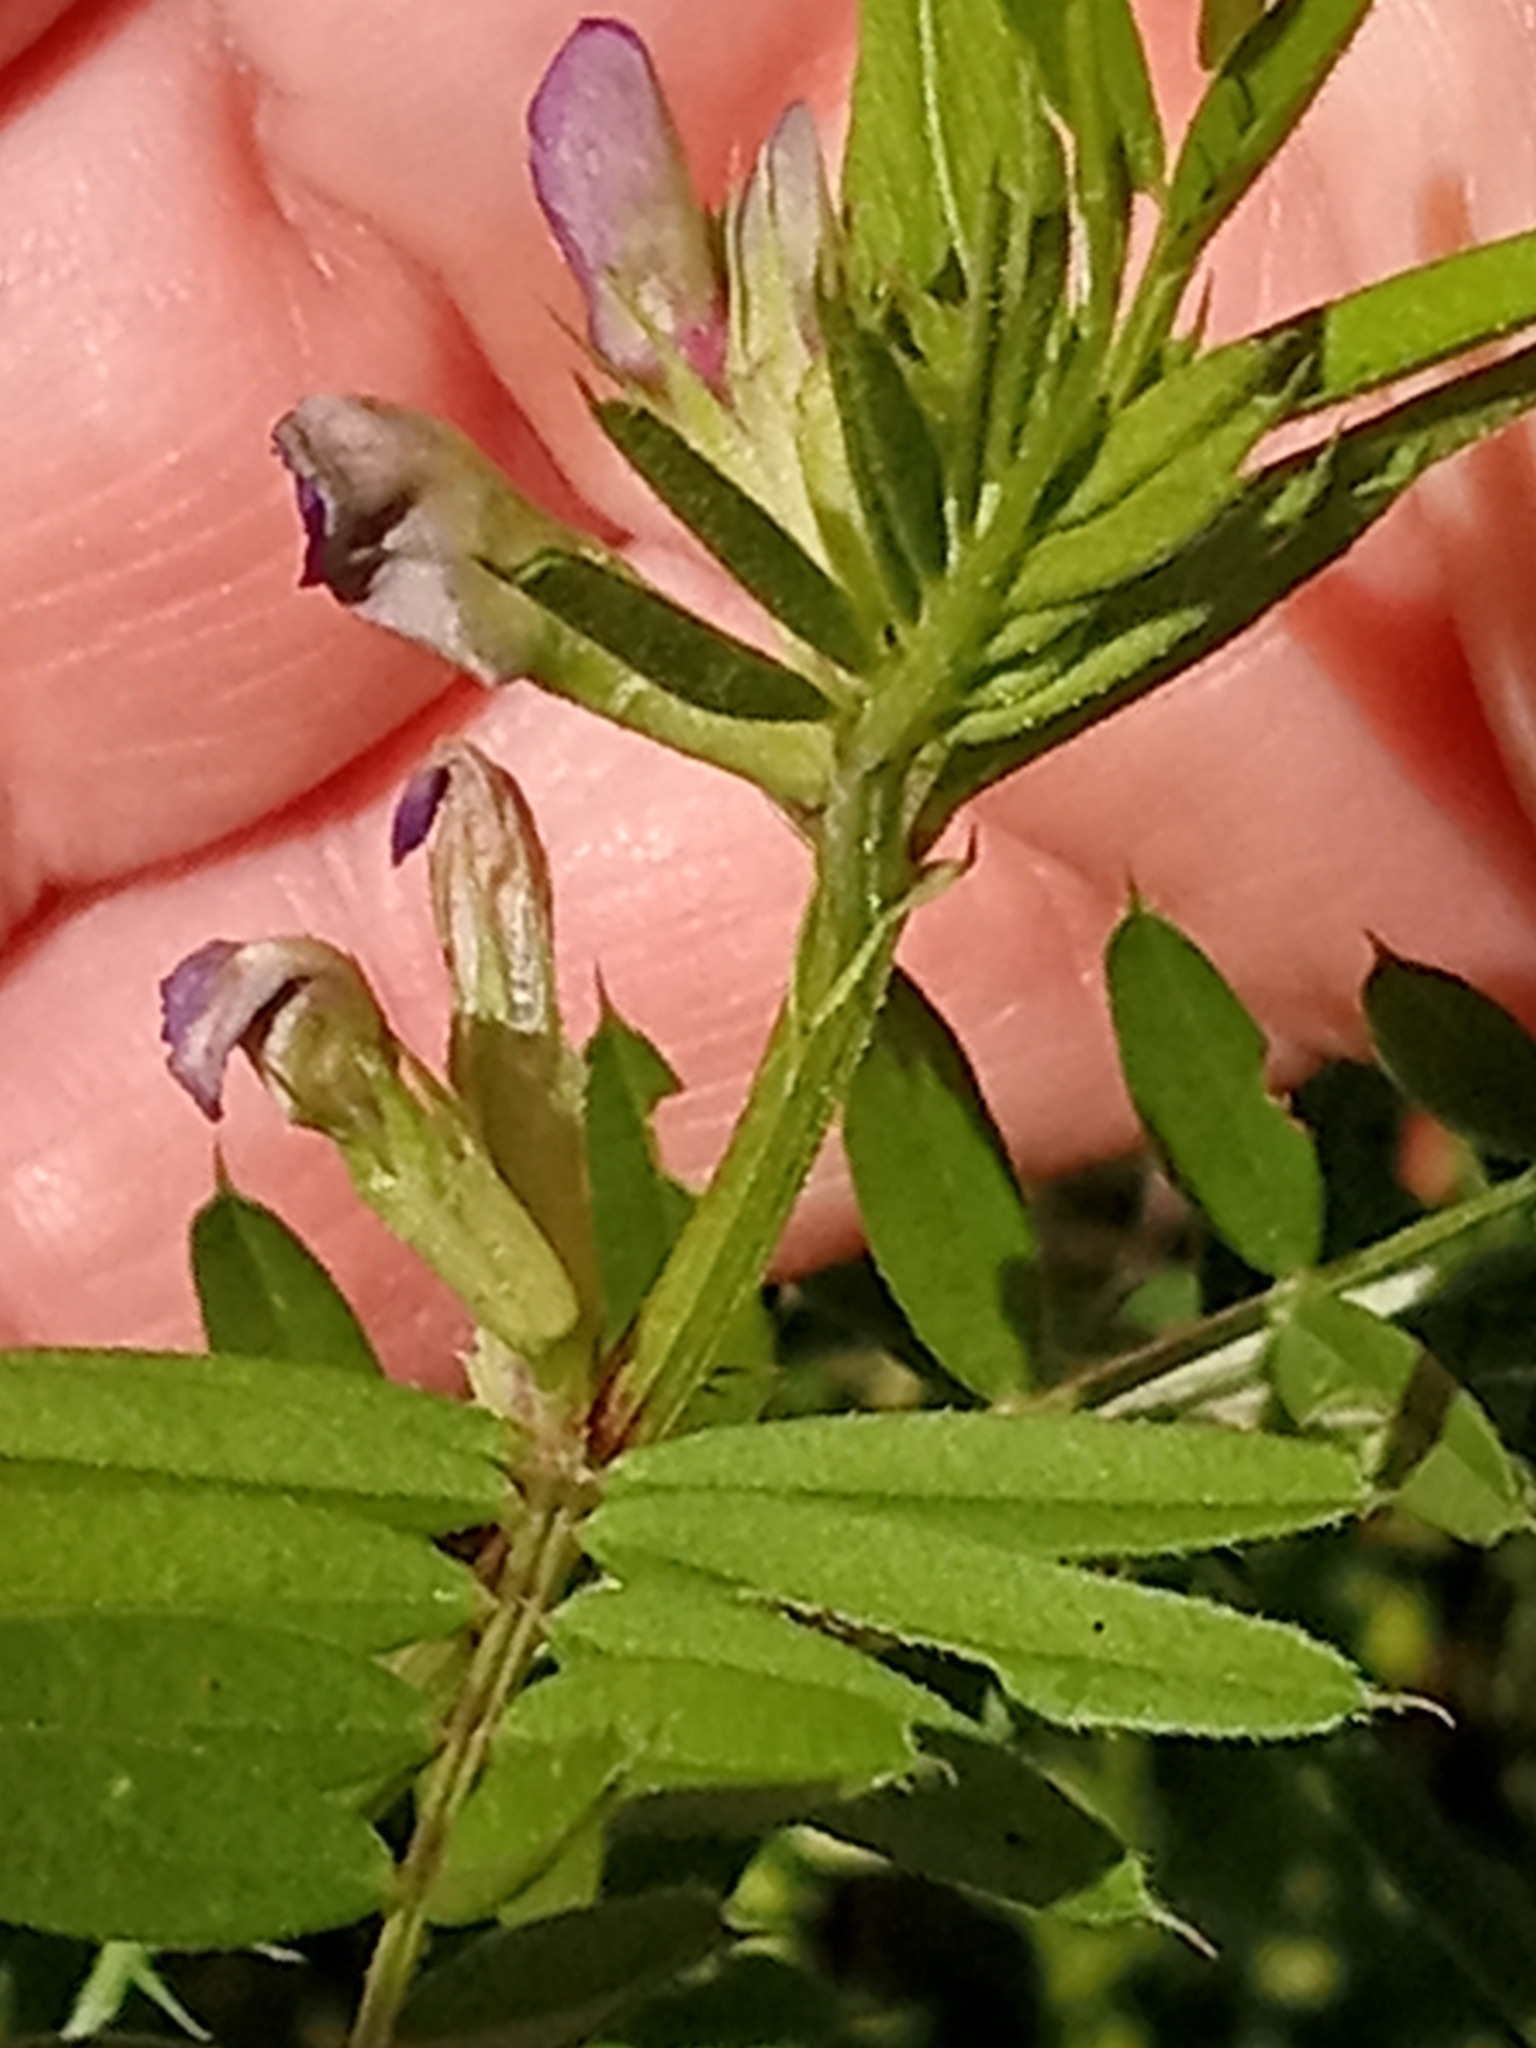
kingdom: Plantae
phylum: Tracheophyta
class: Magnoliopsida
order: Fabales
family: Fabaceae
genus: Vicia
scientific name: Vicia sativa
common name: Garden vetch
